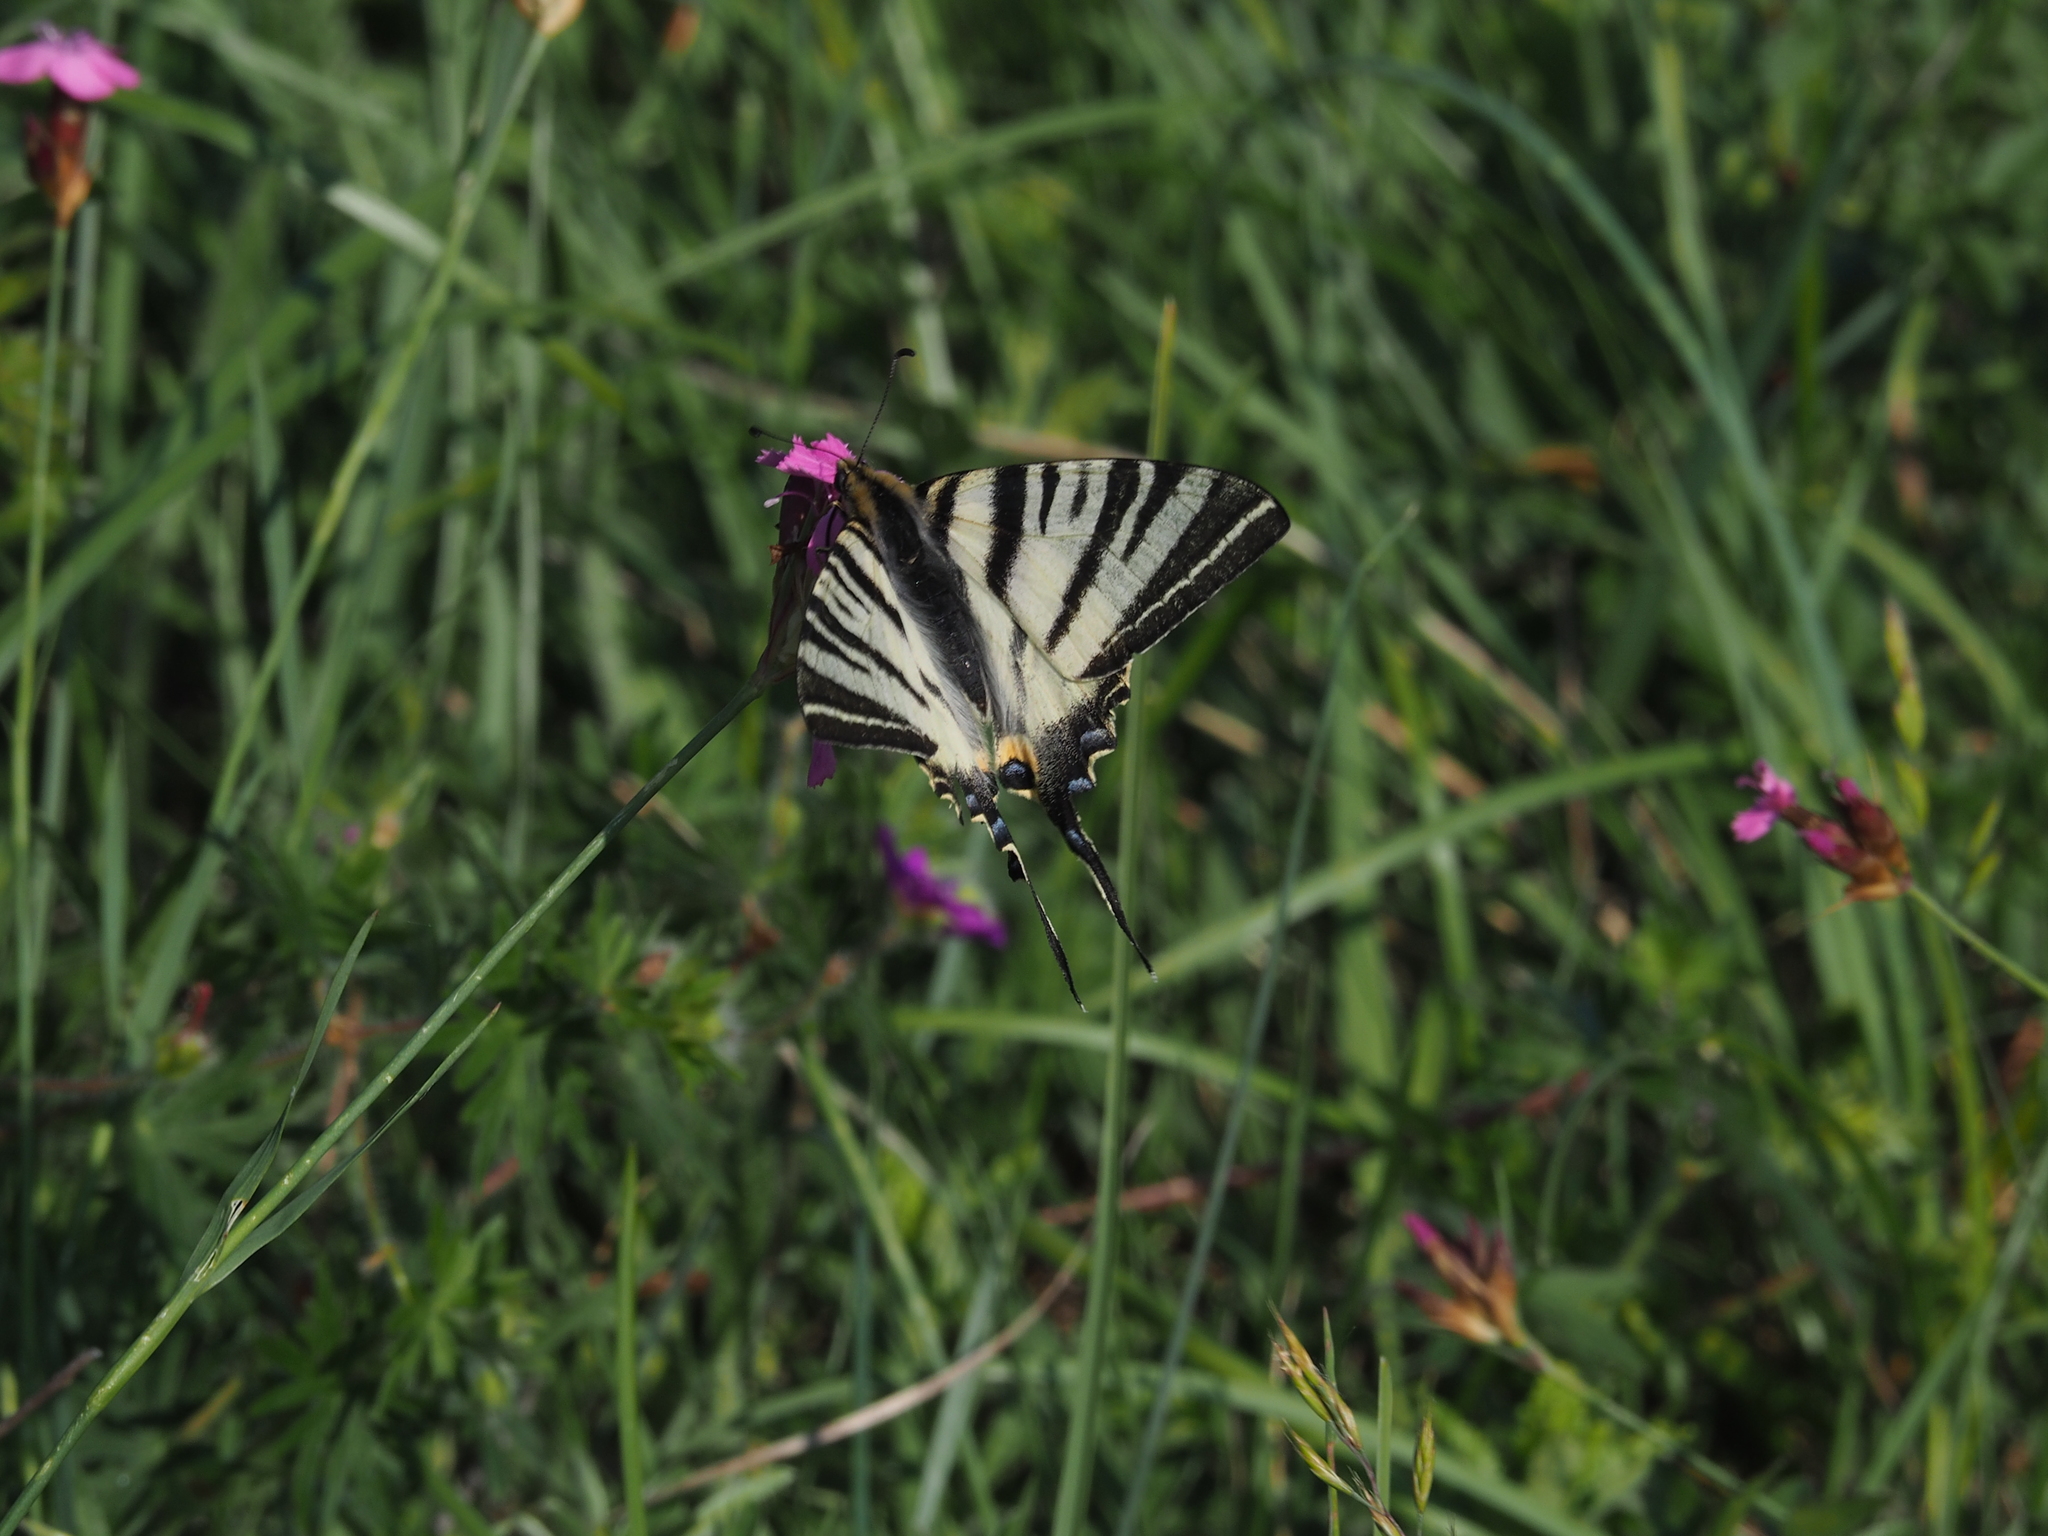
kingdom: Animalia
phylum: Arthropoda
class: Insecta
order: Lepidoptera
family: Papilionidae
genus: Iphiclides
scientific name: Iphiclides podalirius
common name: Scarce swallowtail
